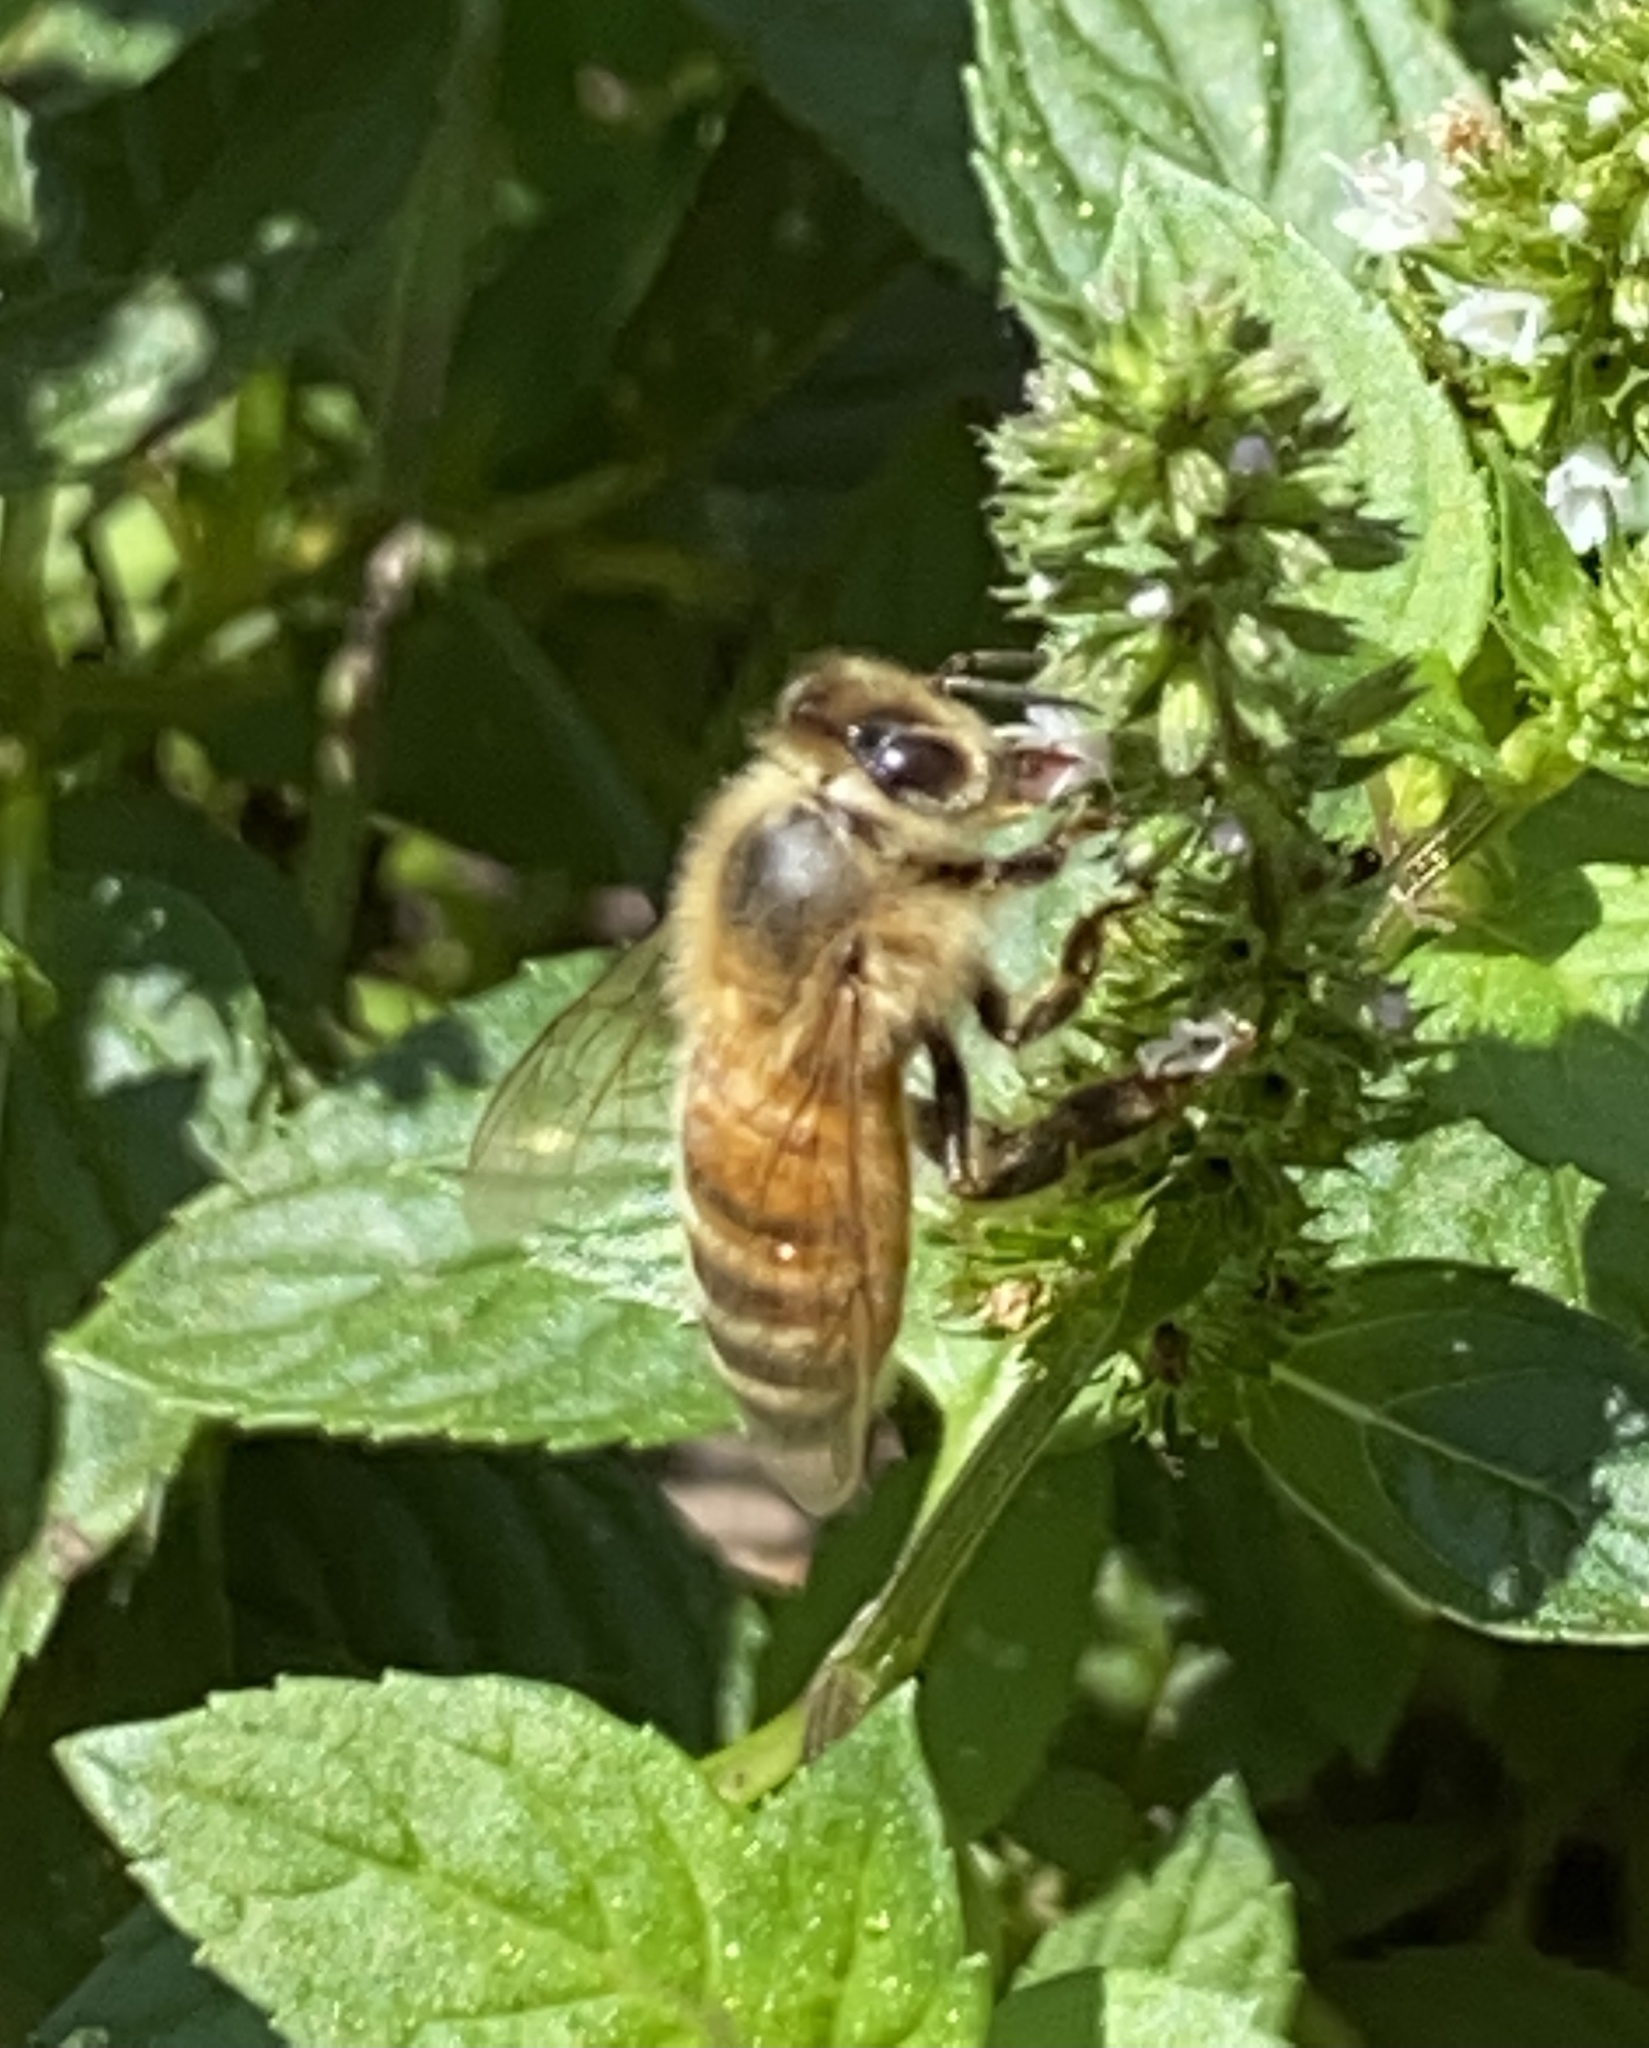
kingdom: Animalia
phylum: Arthropoda
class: Insecta
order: Hymenoptera
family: Apidae
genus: Apis
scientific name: Apis mellifera
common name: Honey bee
